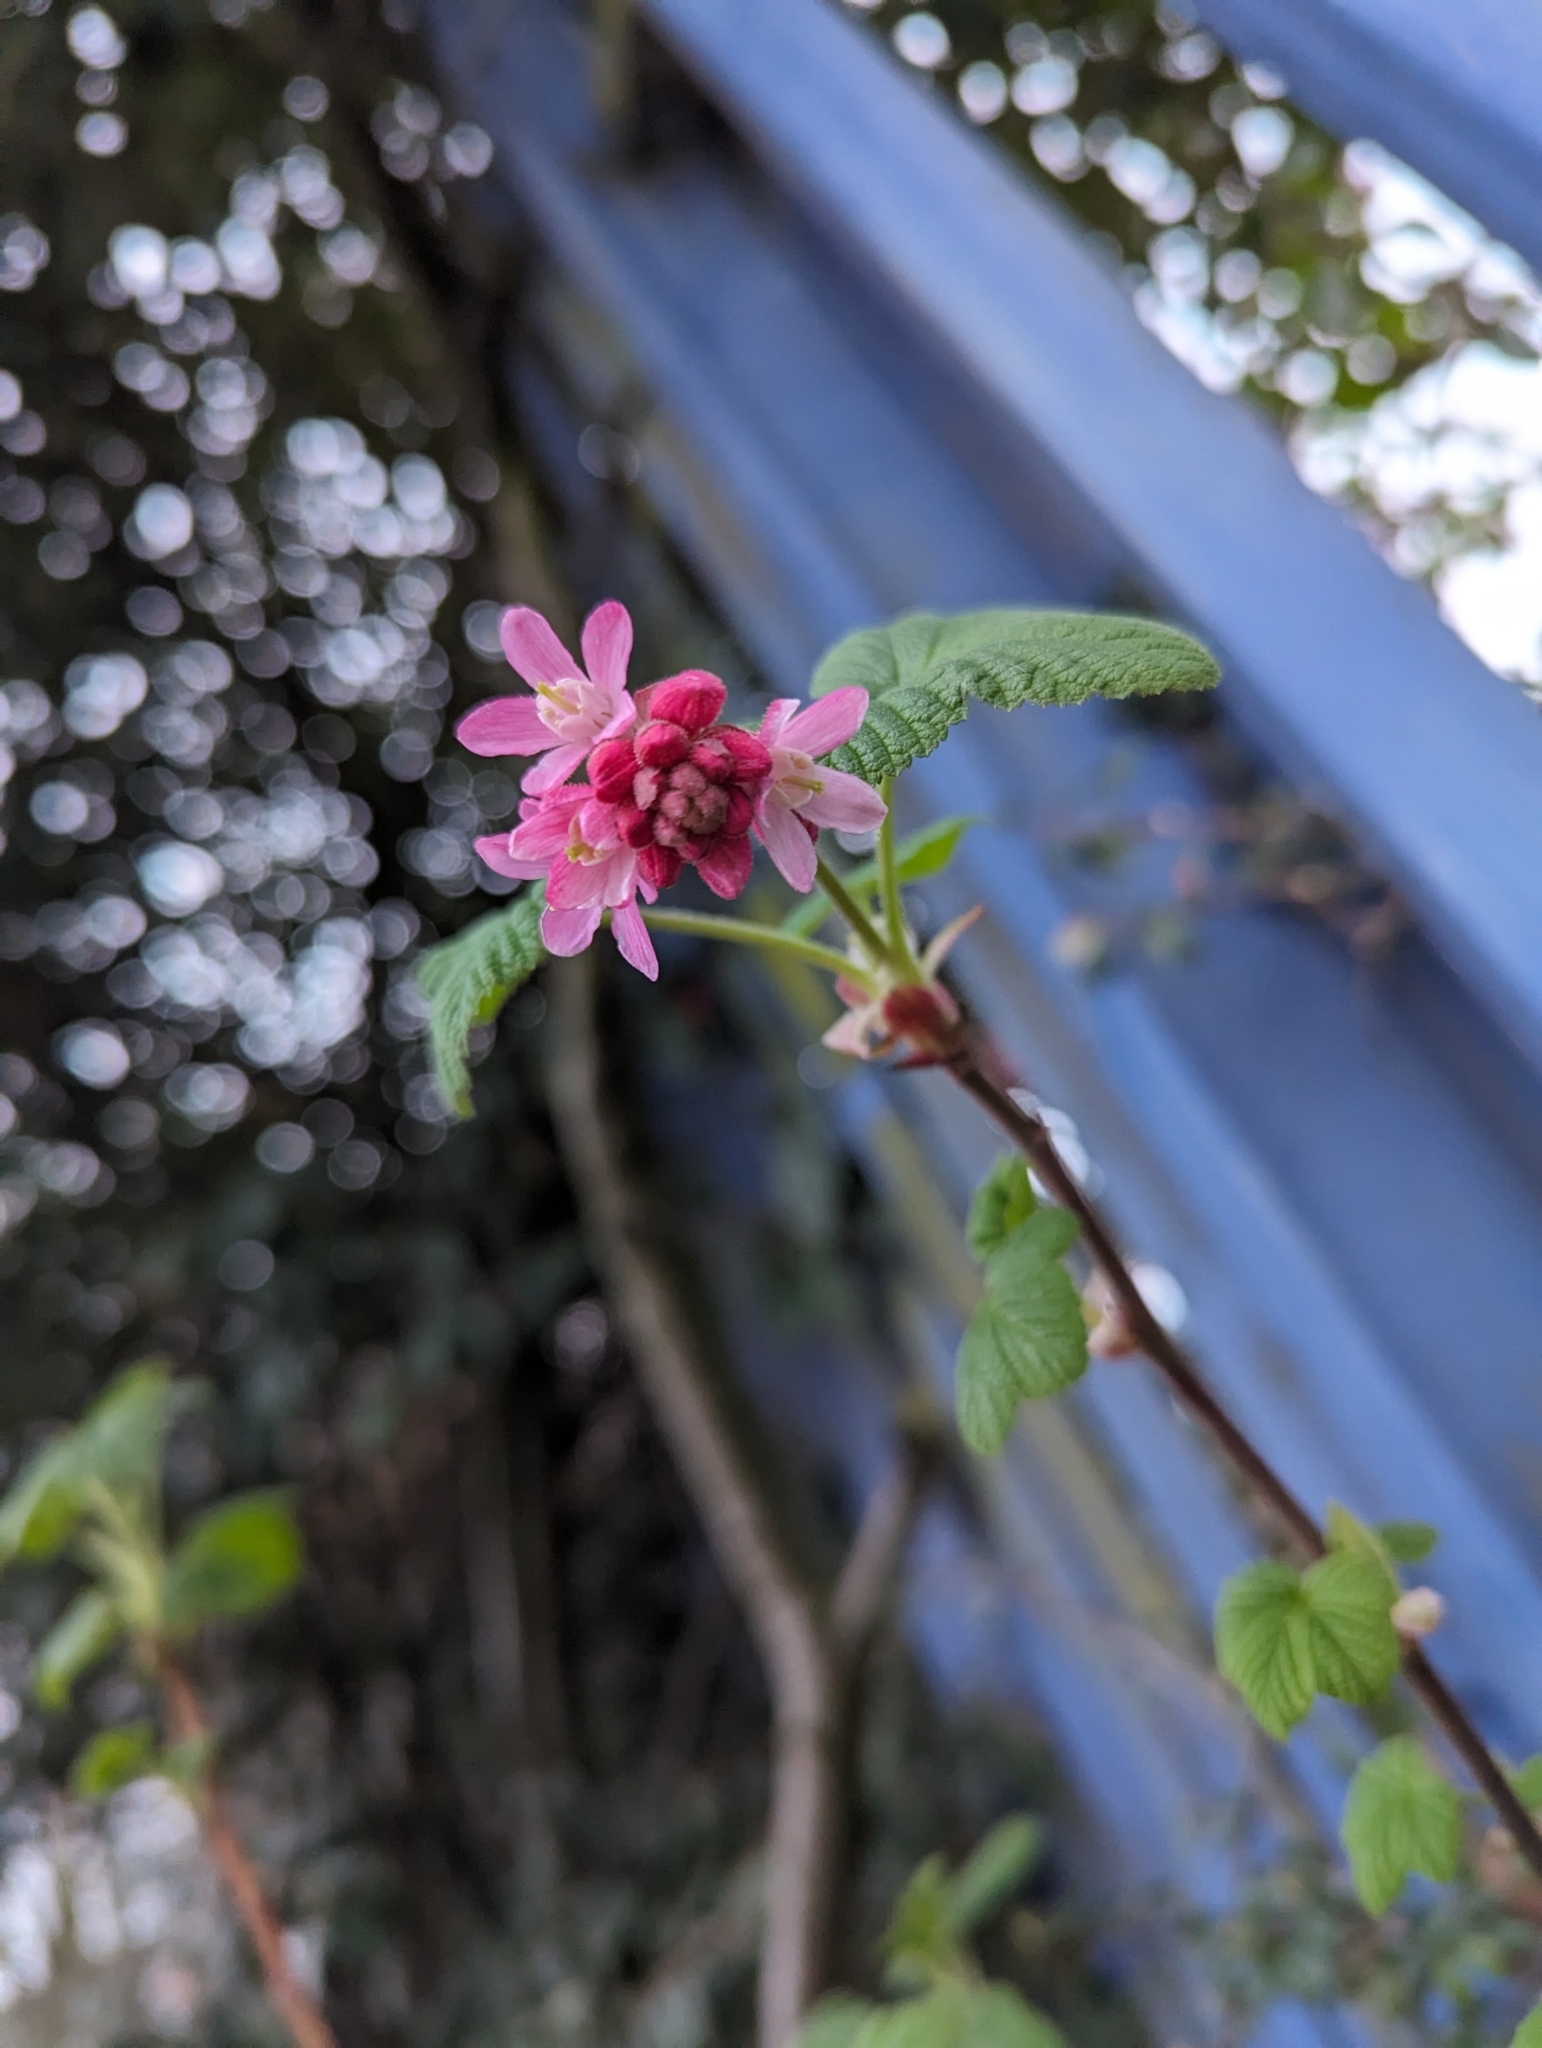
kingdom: Plantae
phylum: Tracheophyta
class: Magnoliopsida
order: Saxifragales
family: Grossulariaceae
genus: Ribes
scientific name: Ribes sanguineum
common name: Flowering currant
